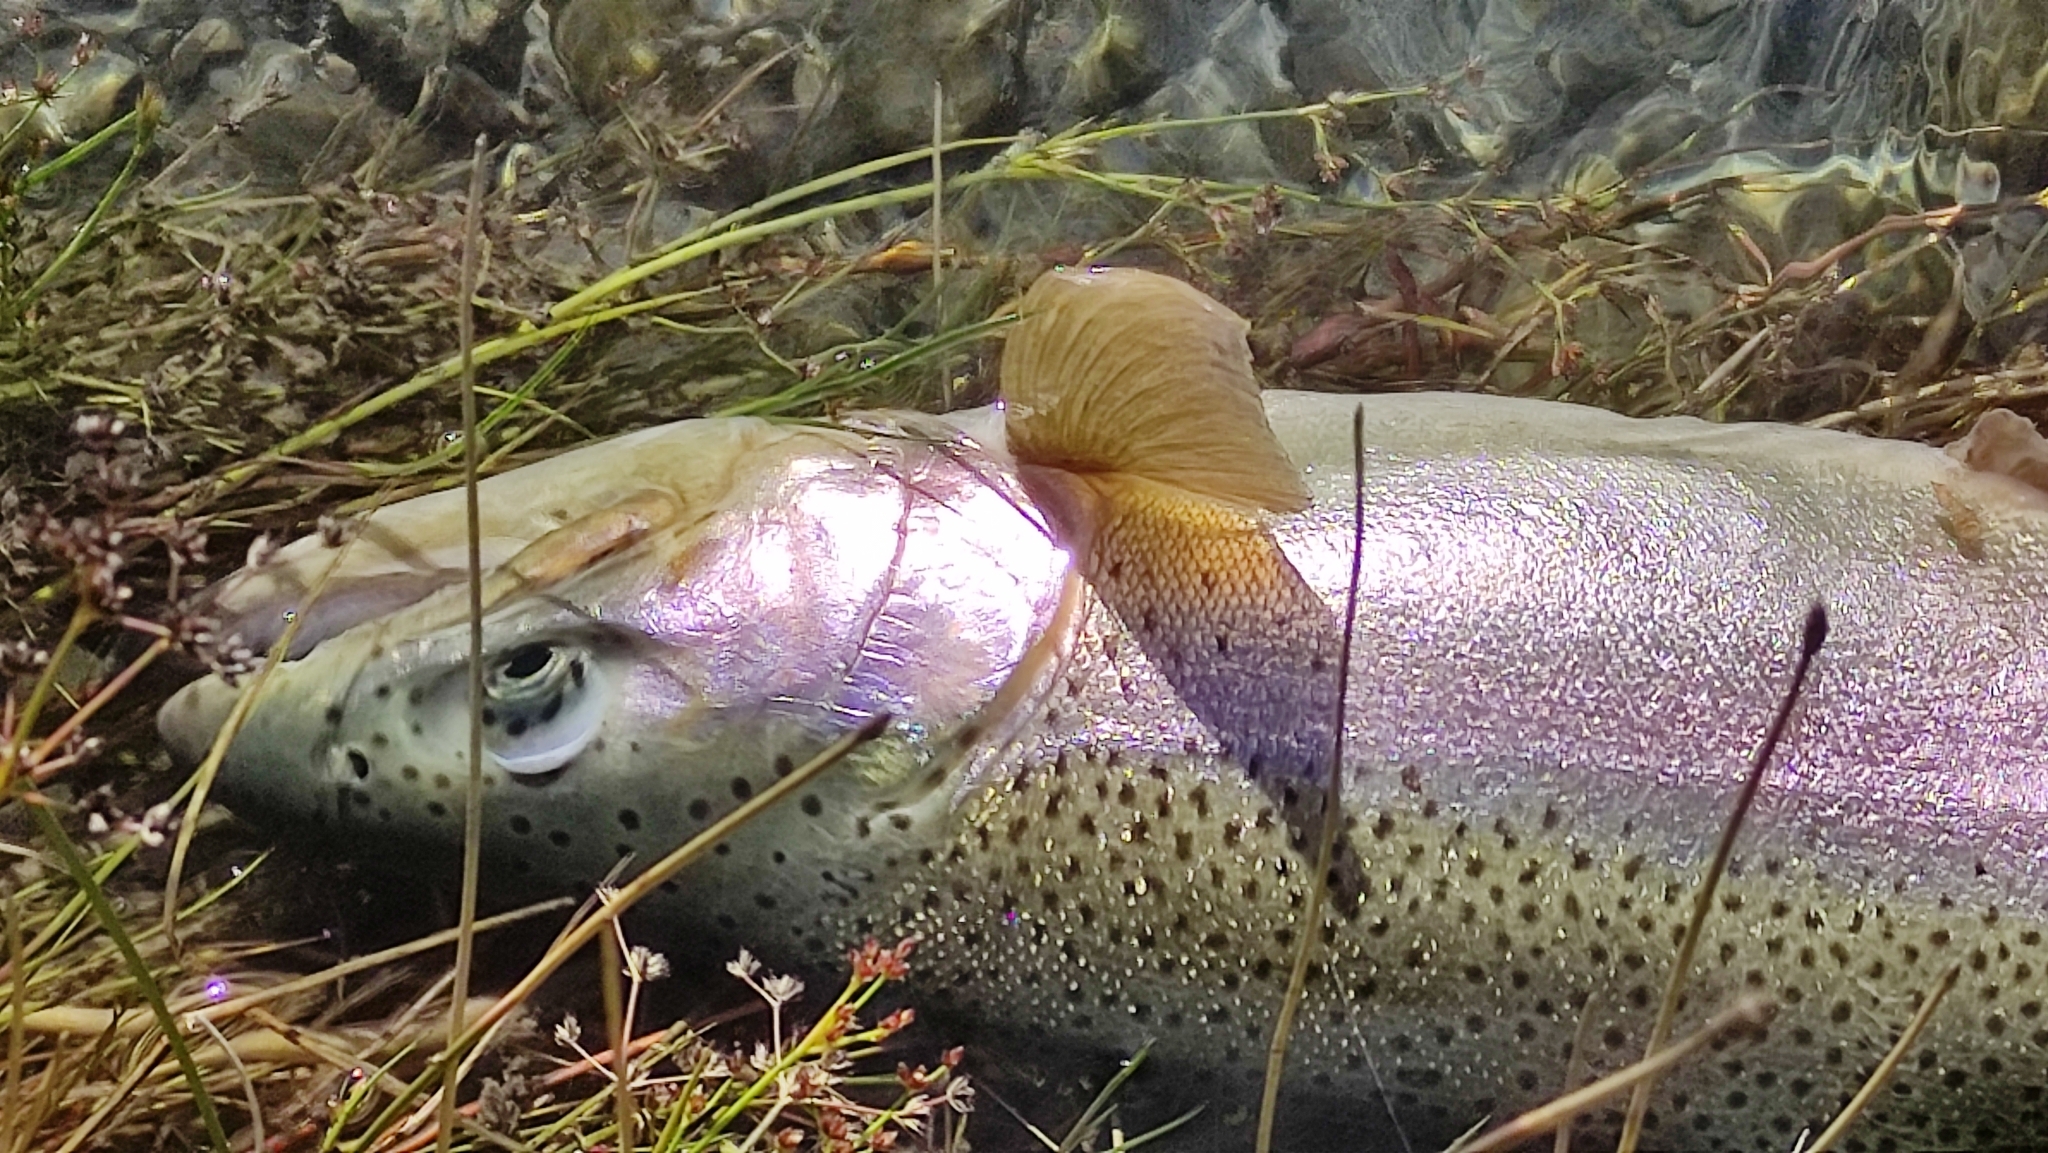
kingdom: Animalia
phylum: Chordata
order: Salmoniformes
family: Salmonidae
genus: Oncorhynchus
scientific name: Oncorhynchus mykiss
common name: Rainbow trout
